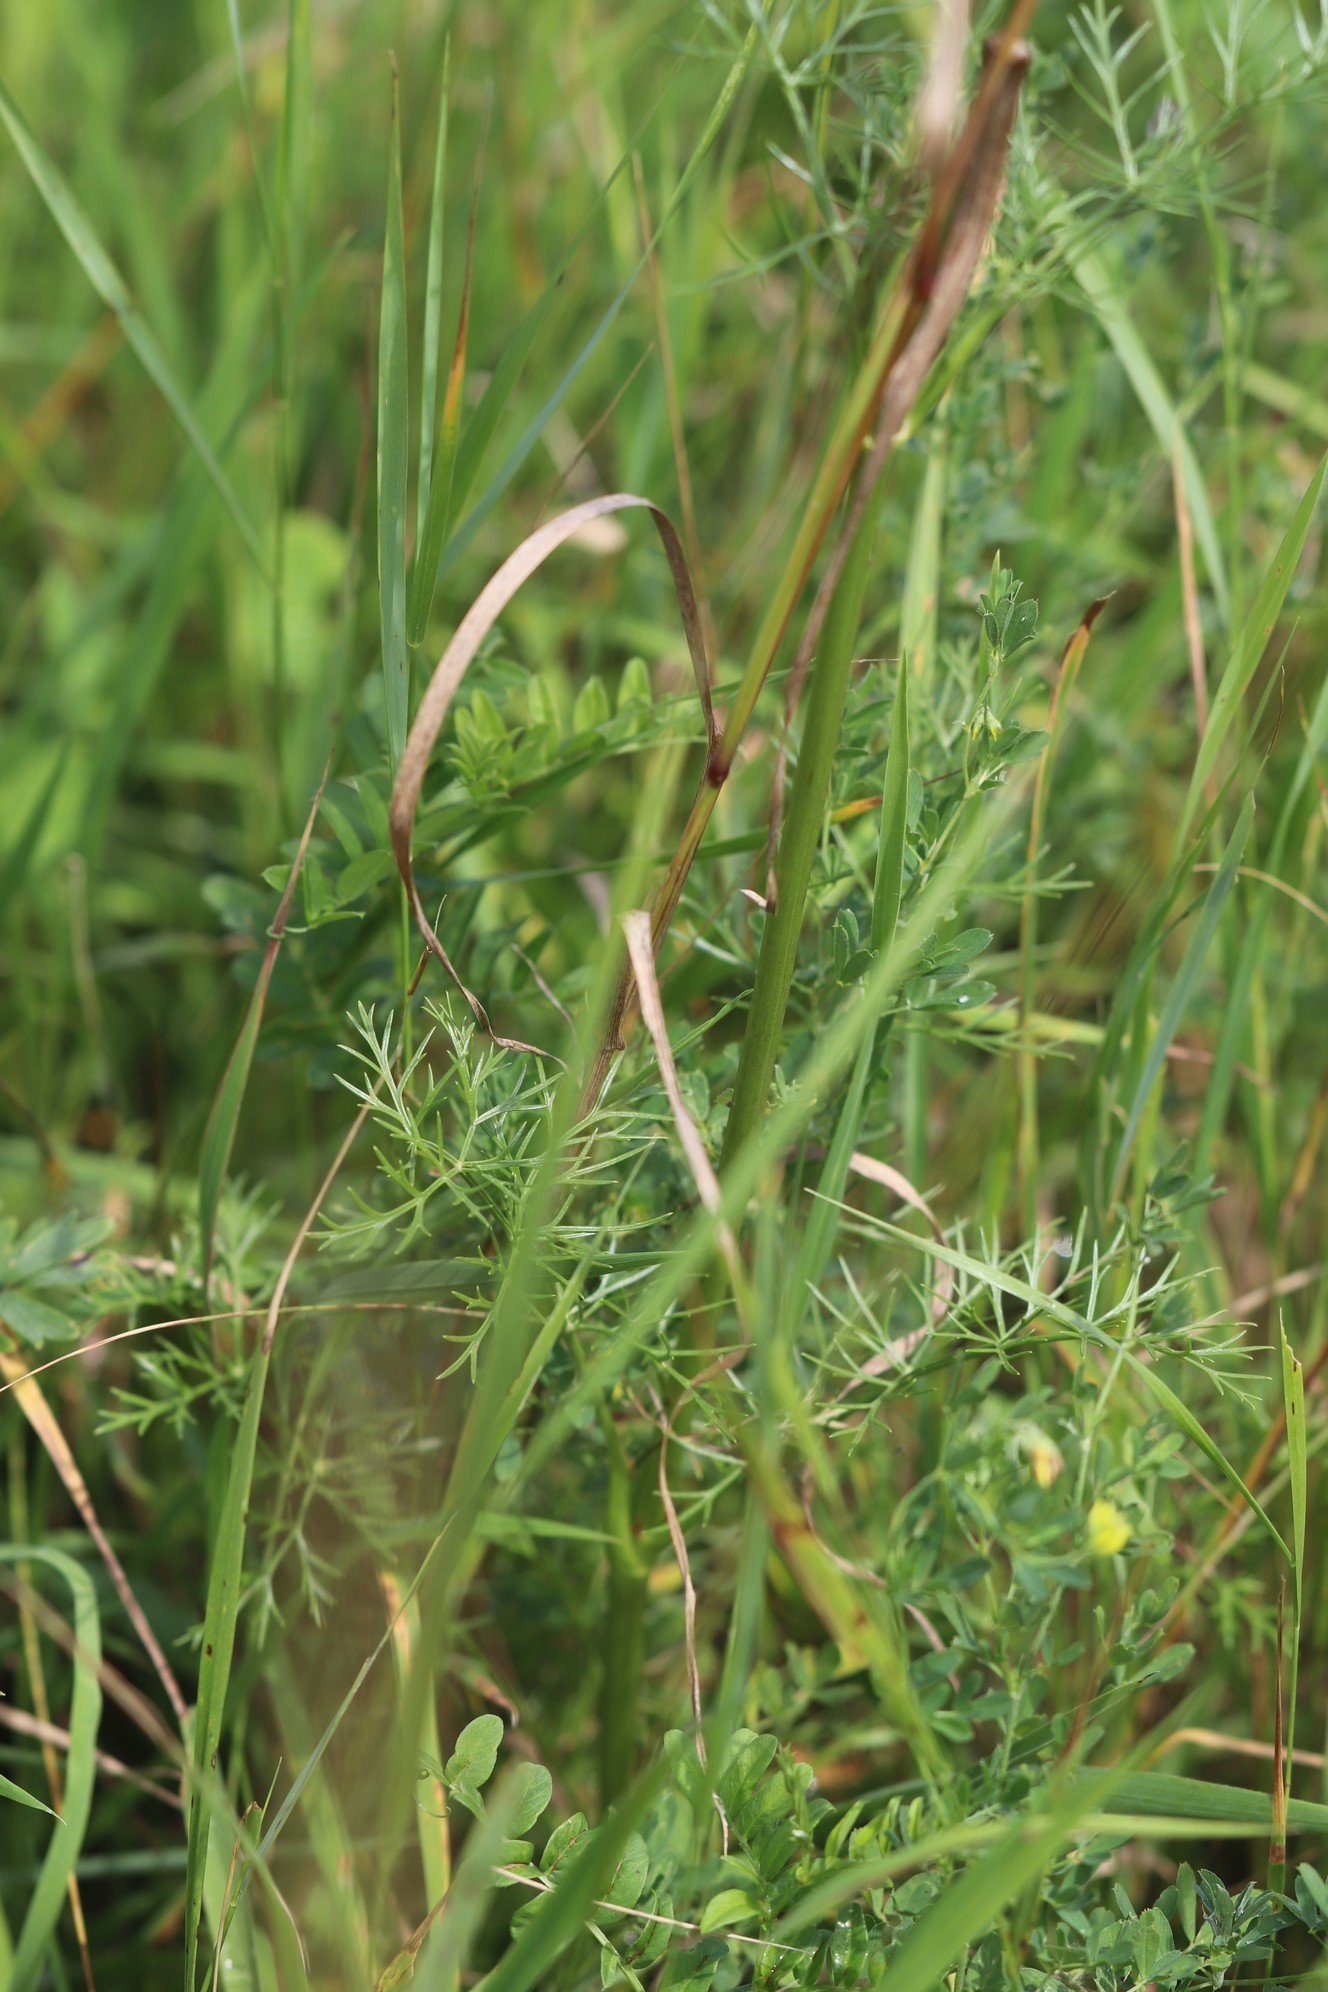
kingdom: Plantae
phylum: Tracheophyta
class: Magnoliopsida
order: Apiales
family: Apiaceae
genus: Kitagawia
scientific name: Kitagawia baicalensis
